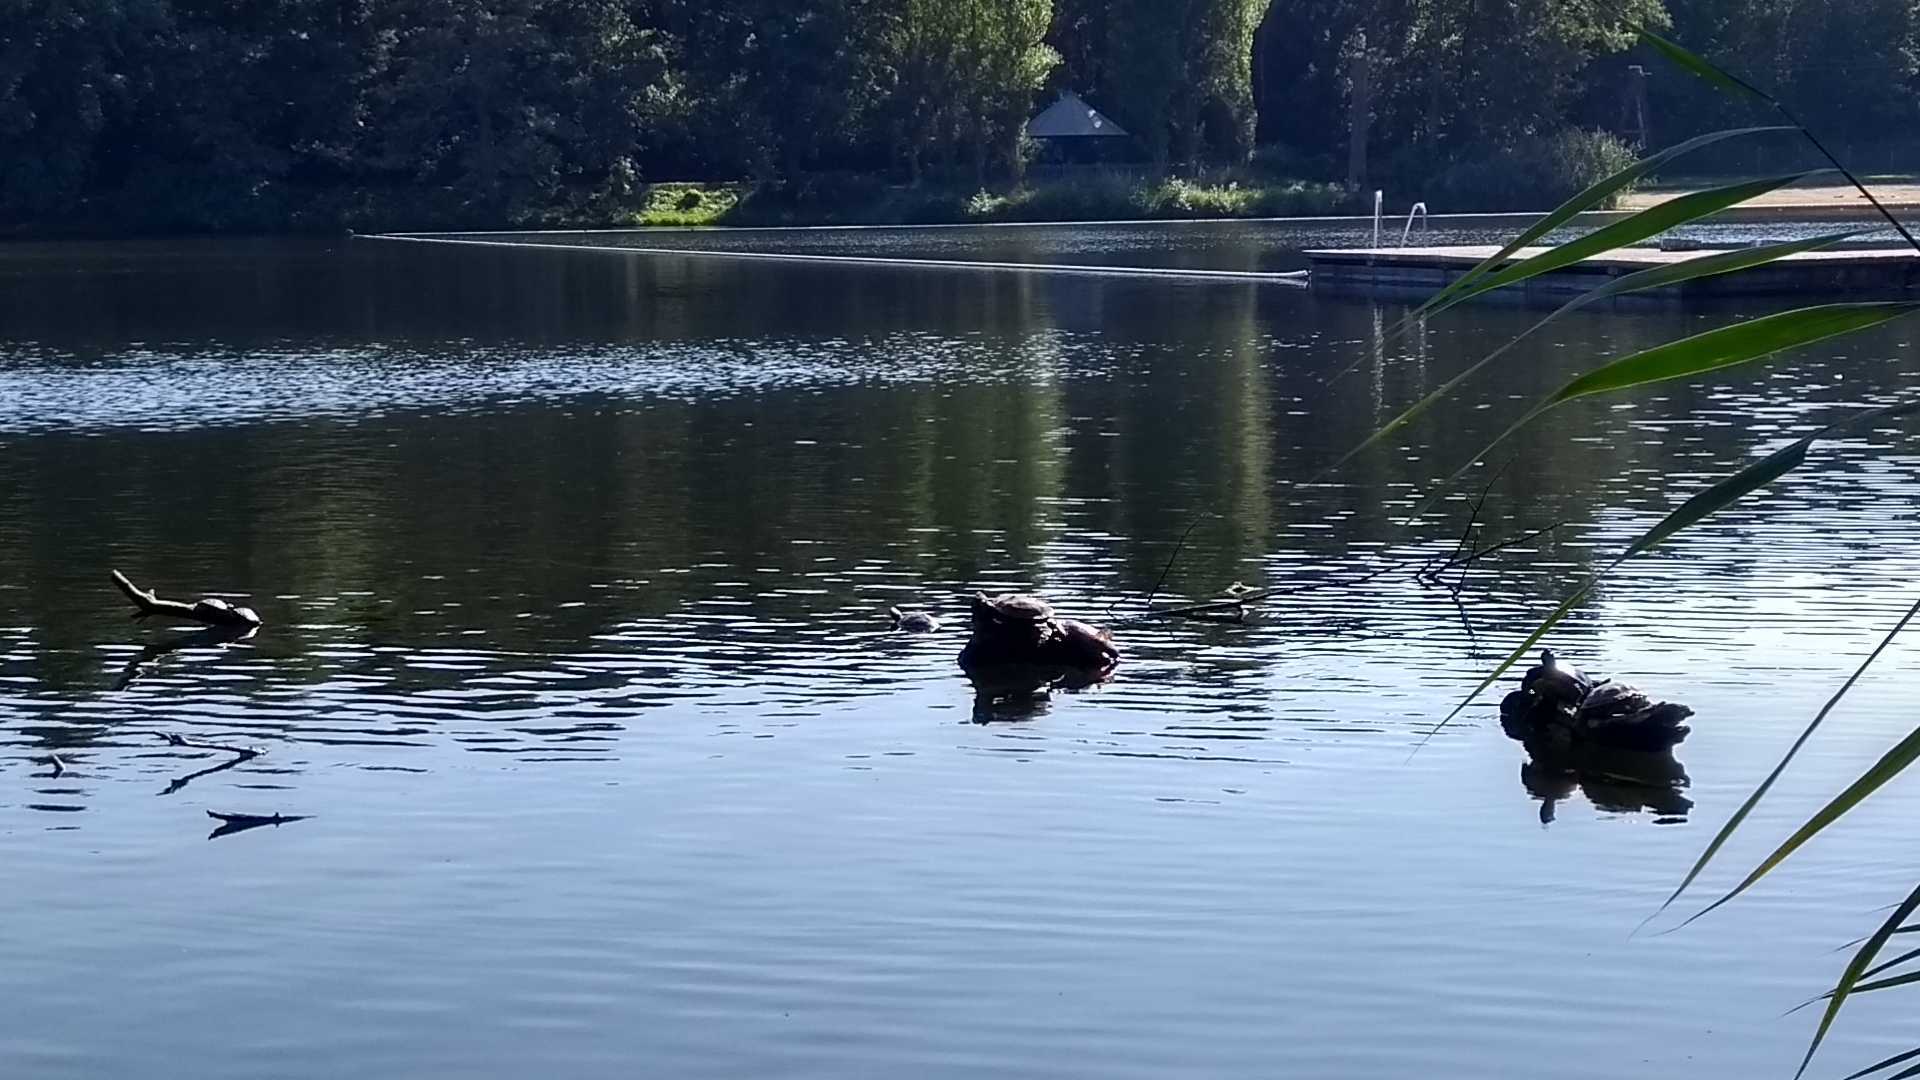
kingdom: Animalia
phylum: Chordata
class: Testudines
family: Emydidae
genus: Trachemys
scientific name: Trachemys scripta
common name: Slider
